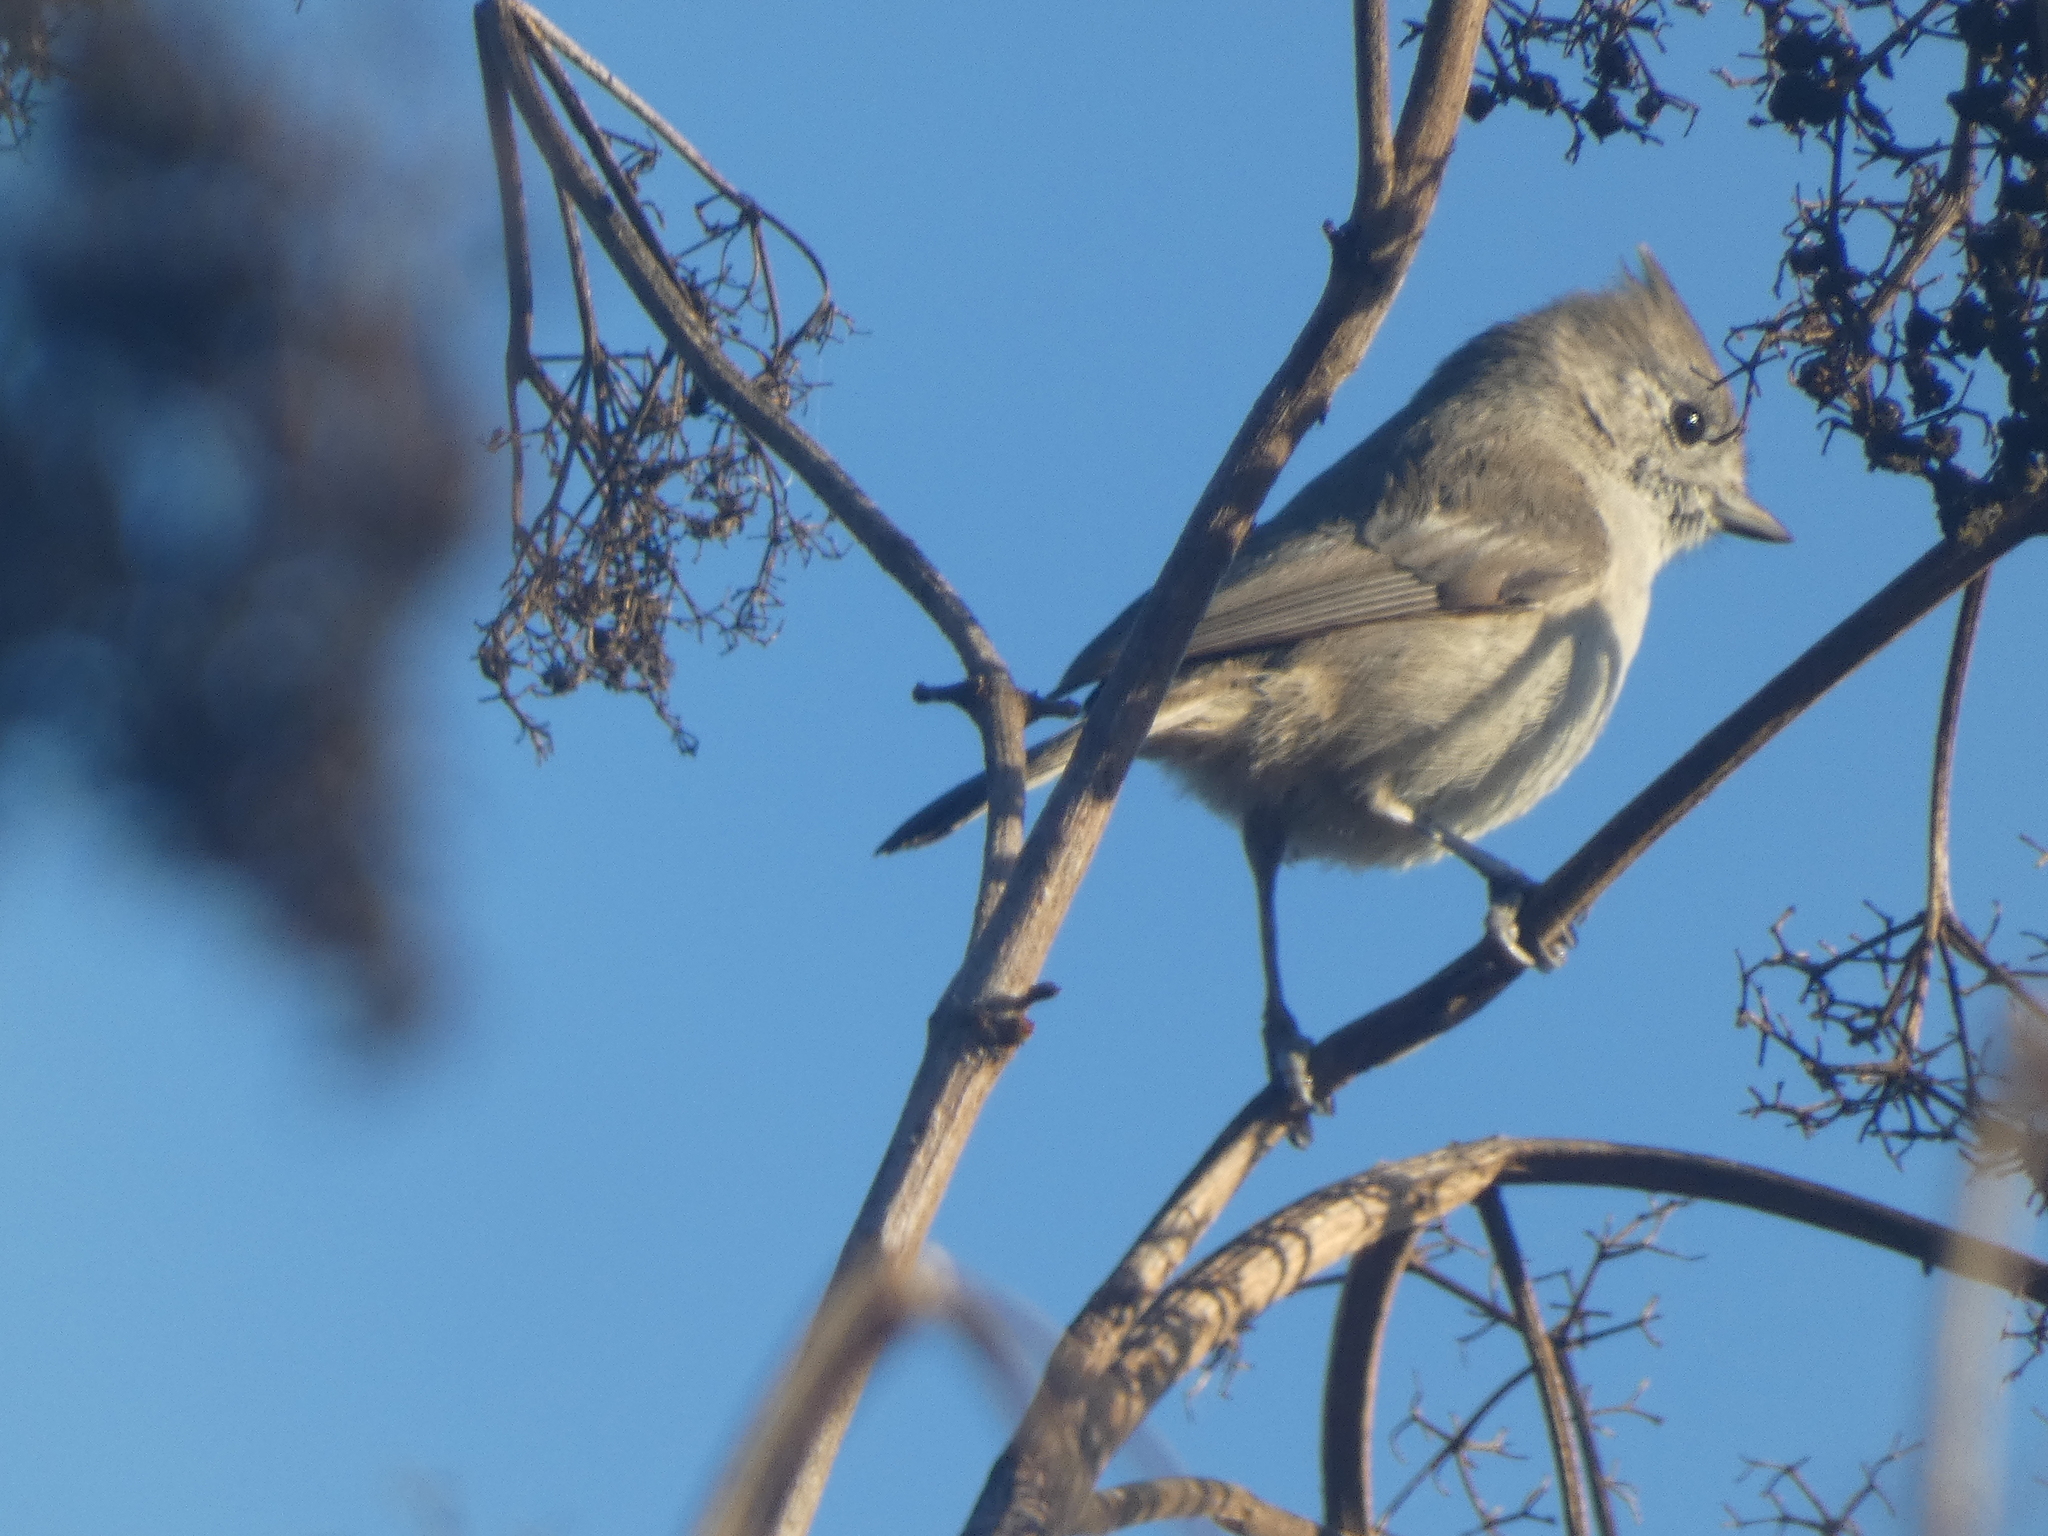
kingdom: Animalia
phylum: Chordata
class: Aves
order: Passeriformes
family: Paridae
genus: Baeolophus
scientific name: Baeolophus inornatus
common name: Oak titmouse
